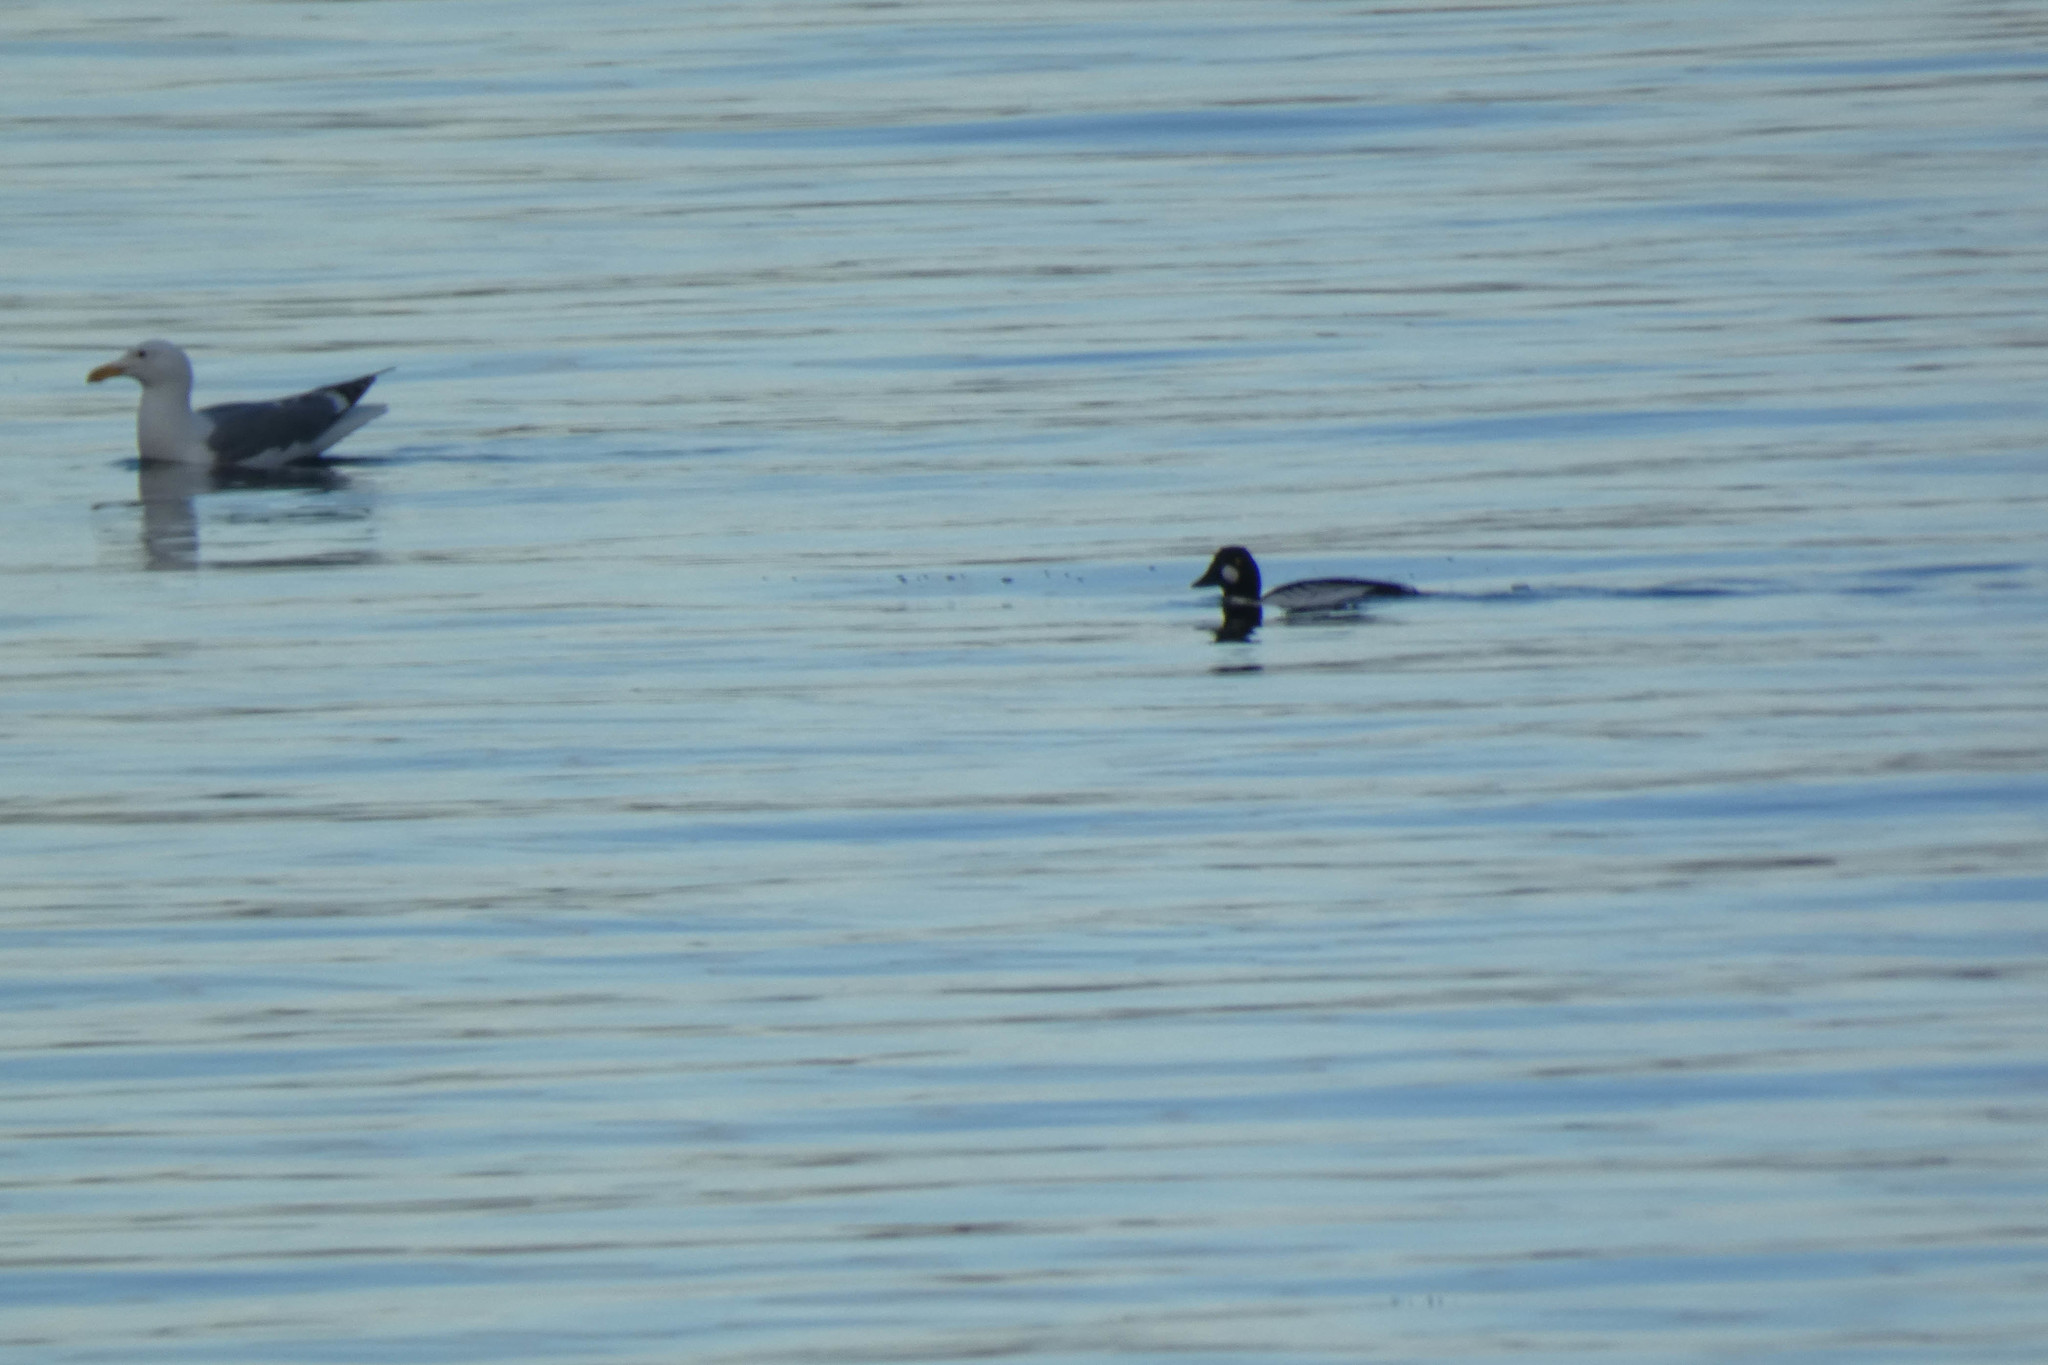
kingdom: Animalia
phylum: Chordata
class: Aves
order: Anseriformes
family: Anatidae
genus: Bucephala
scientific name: Bucephala clangula
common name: Common goldeneye
